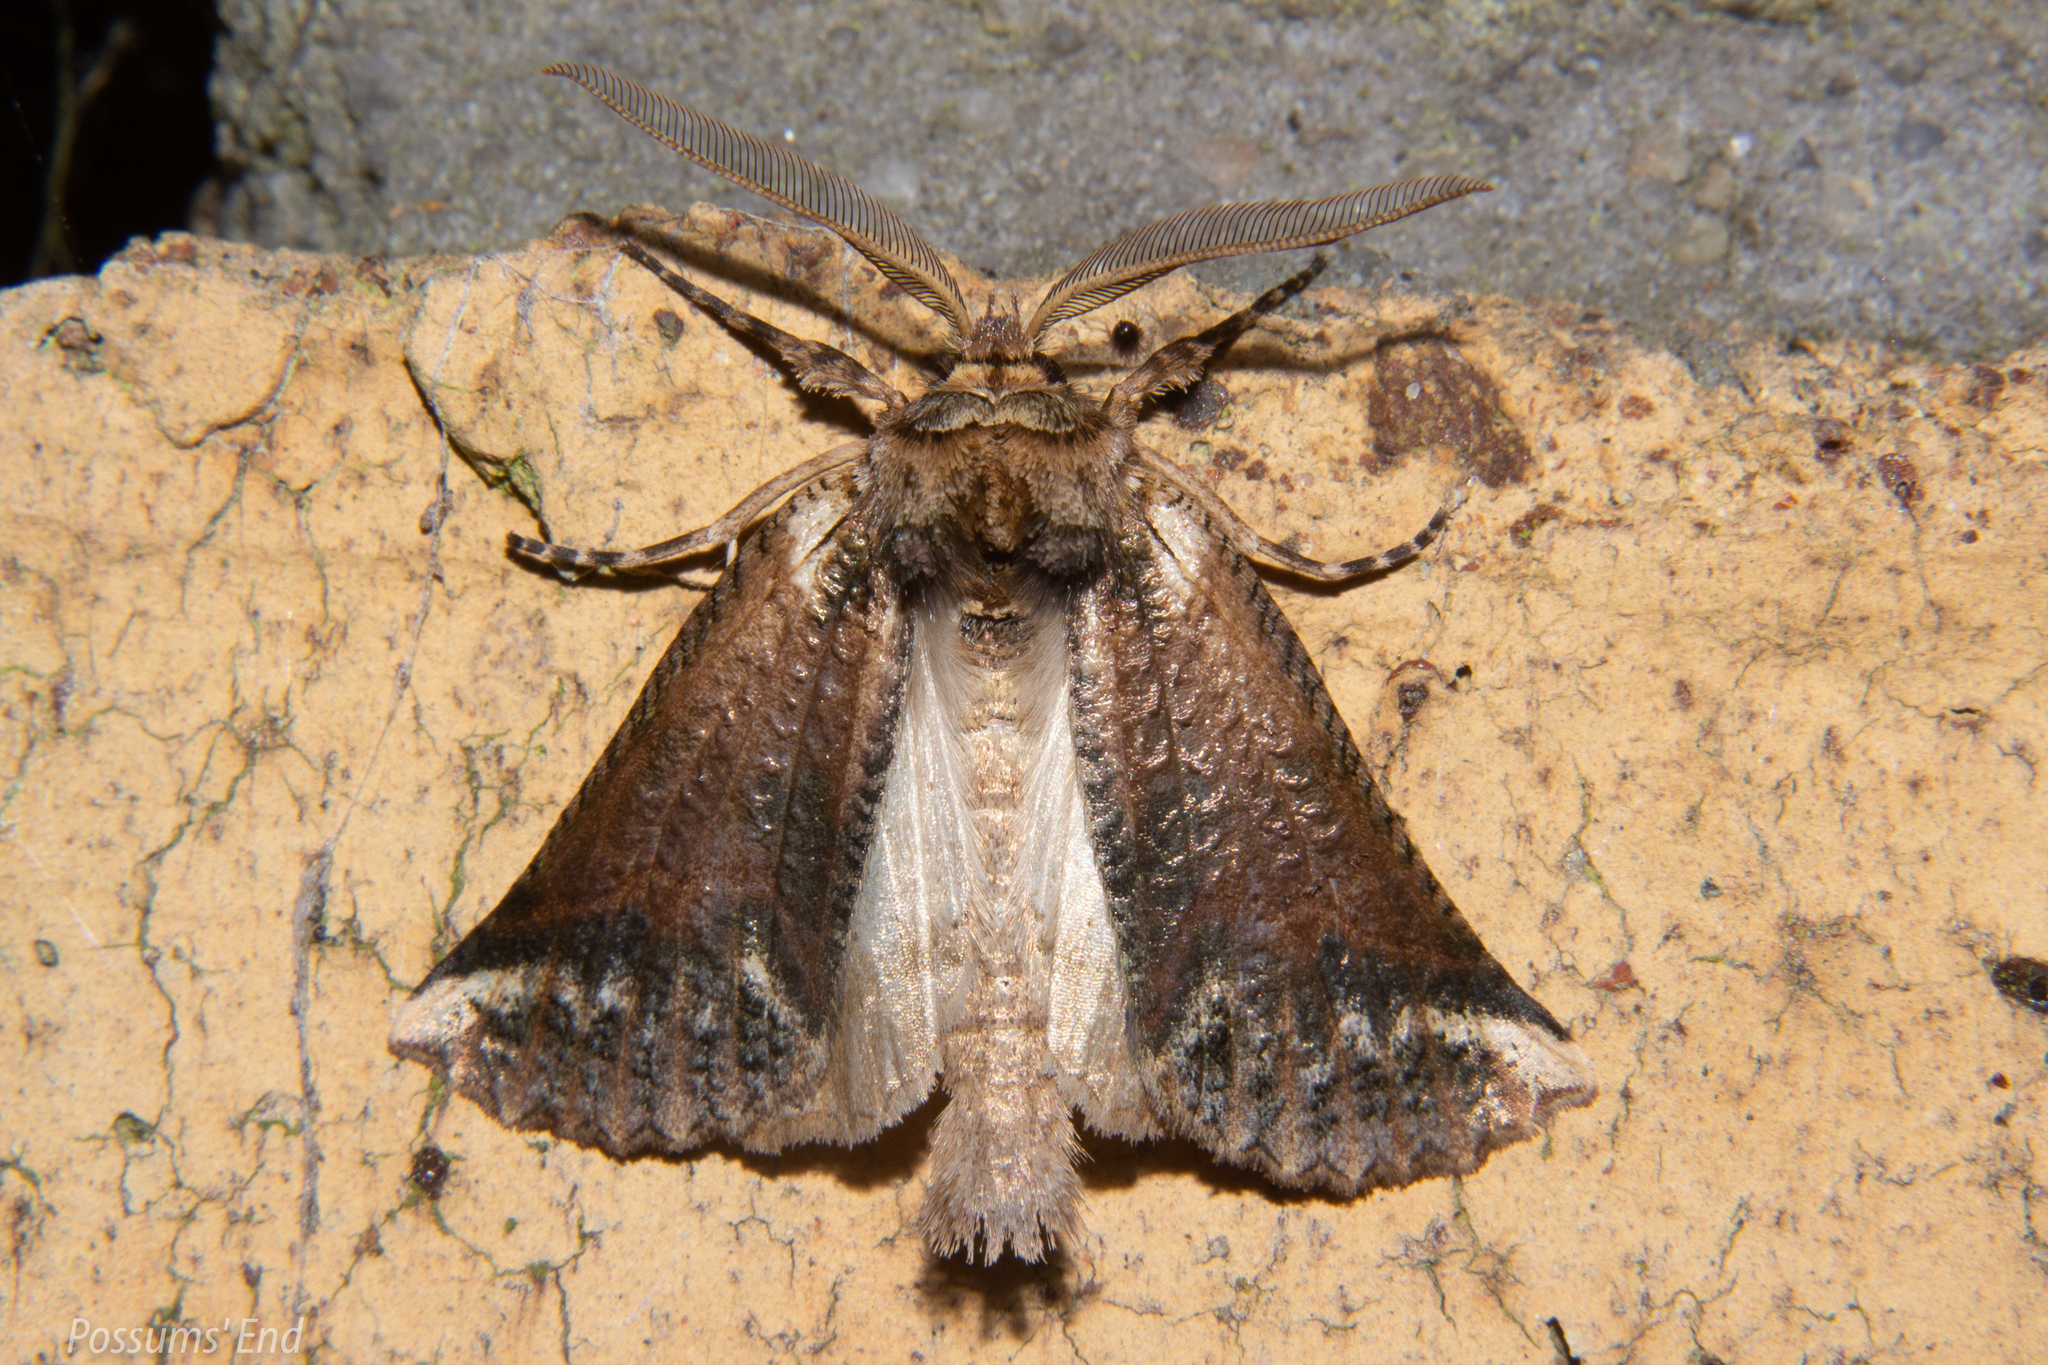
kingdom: Animalia
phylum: Arthropoda
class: Insecta
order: Lepidoptera
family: Geometridae
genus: Declana
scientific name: Declana
